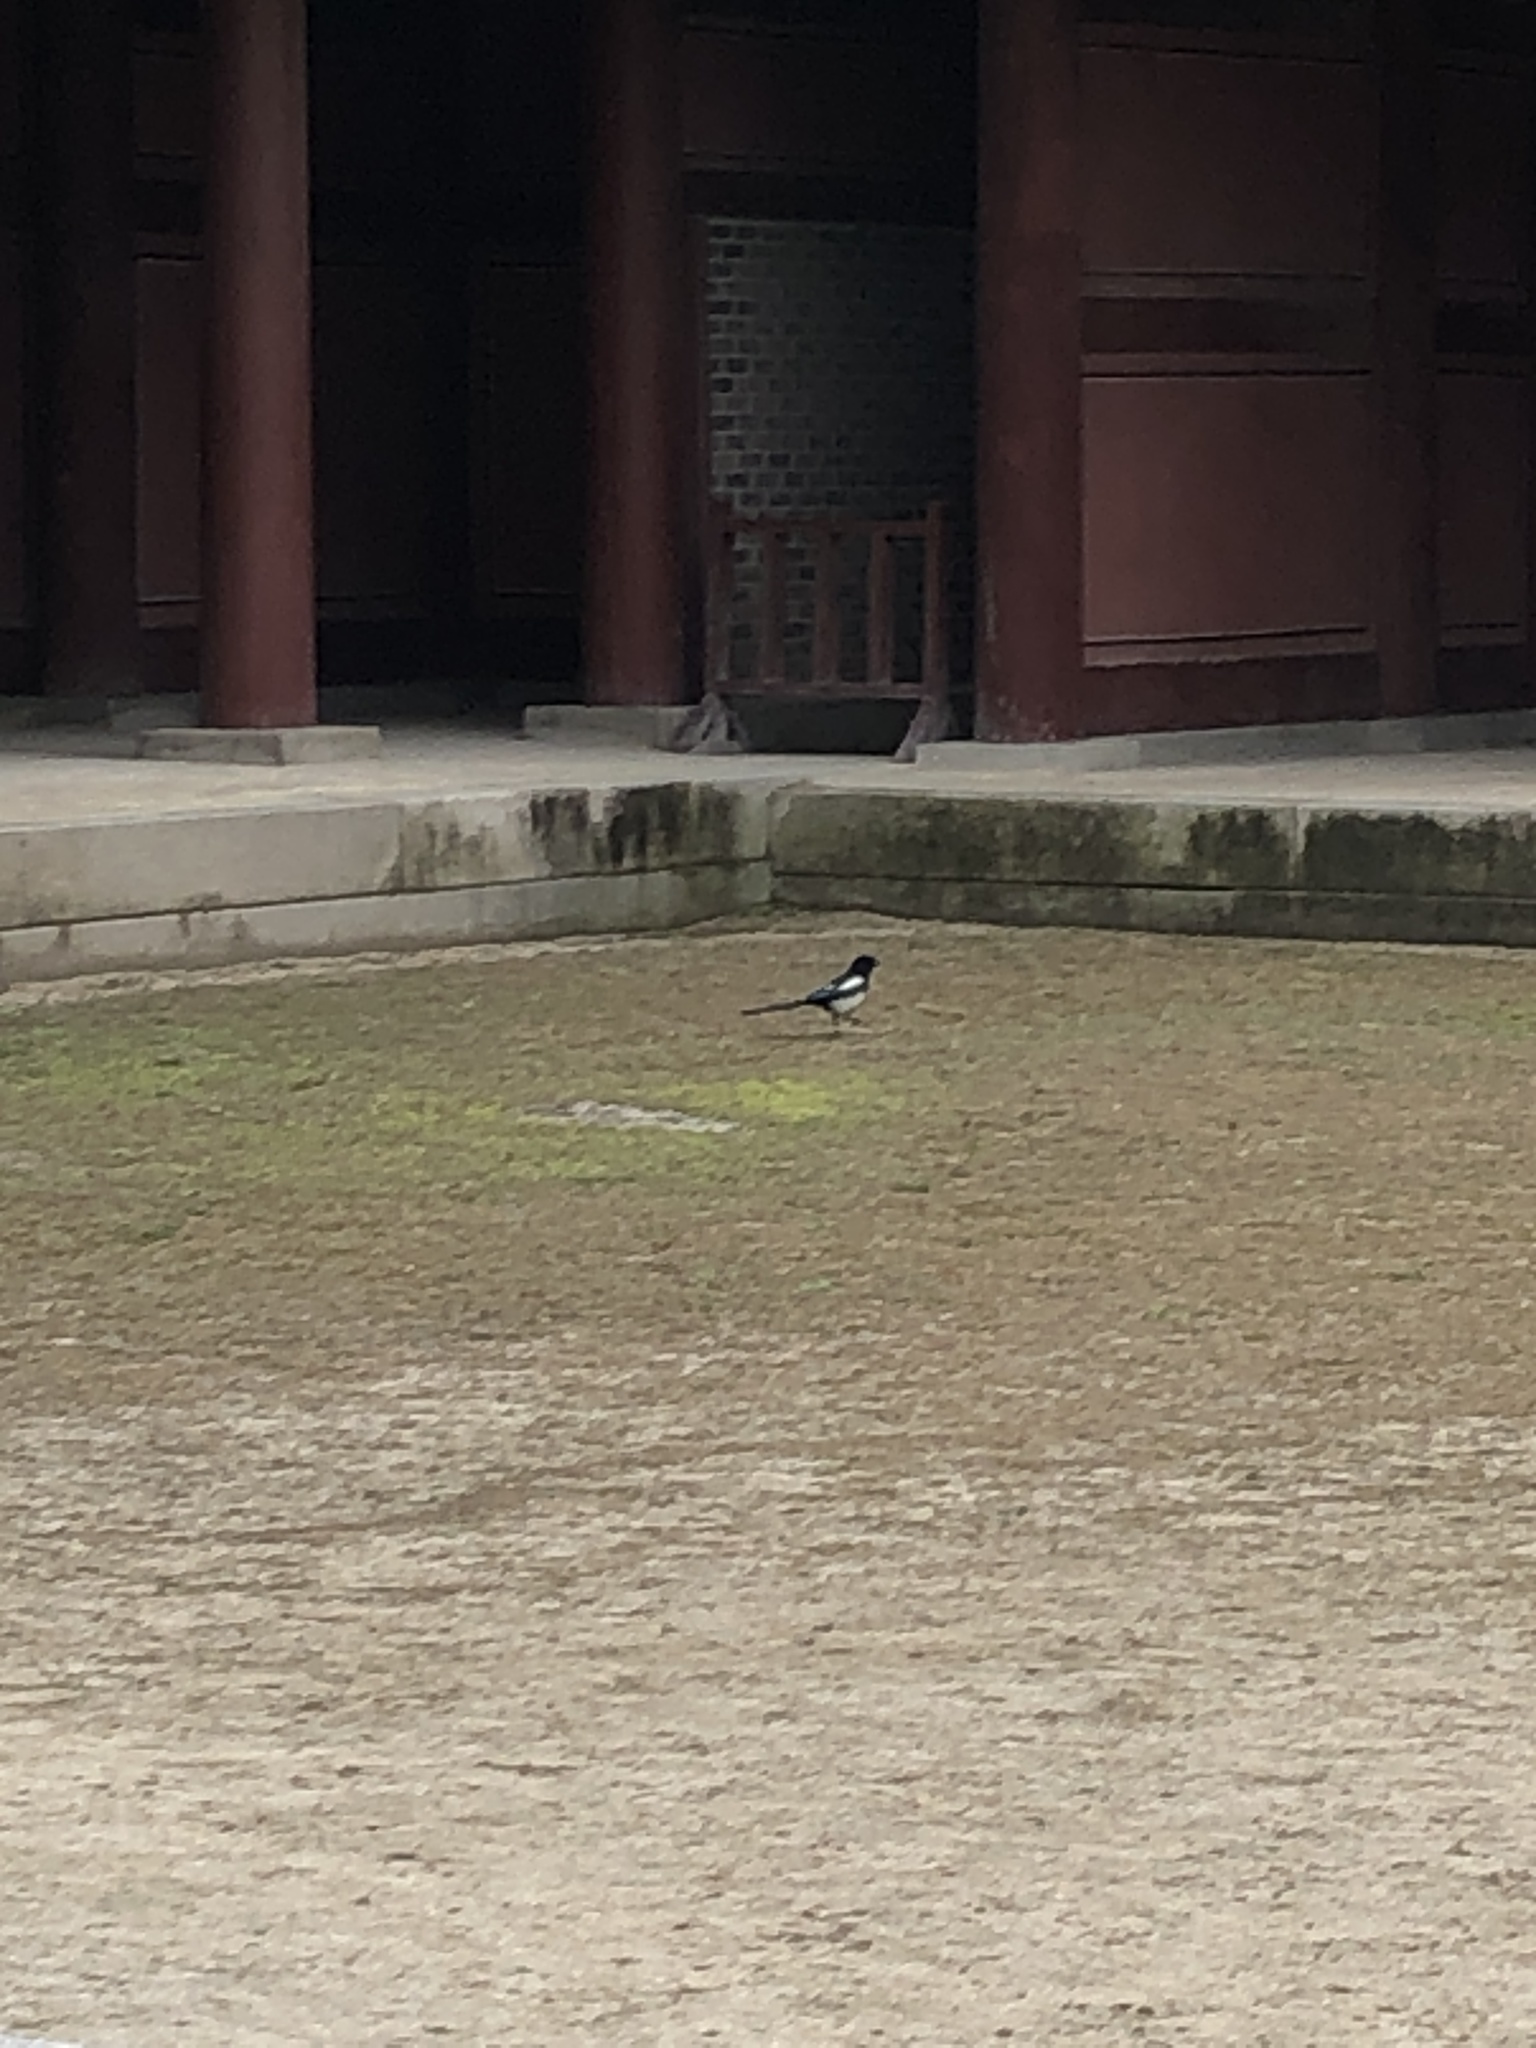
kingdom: Animalia
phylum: Chordata
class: Aves
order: Passeriformes
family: Corvidae
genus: Pica
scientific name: Pica serica
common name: Oriental magpie
